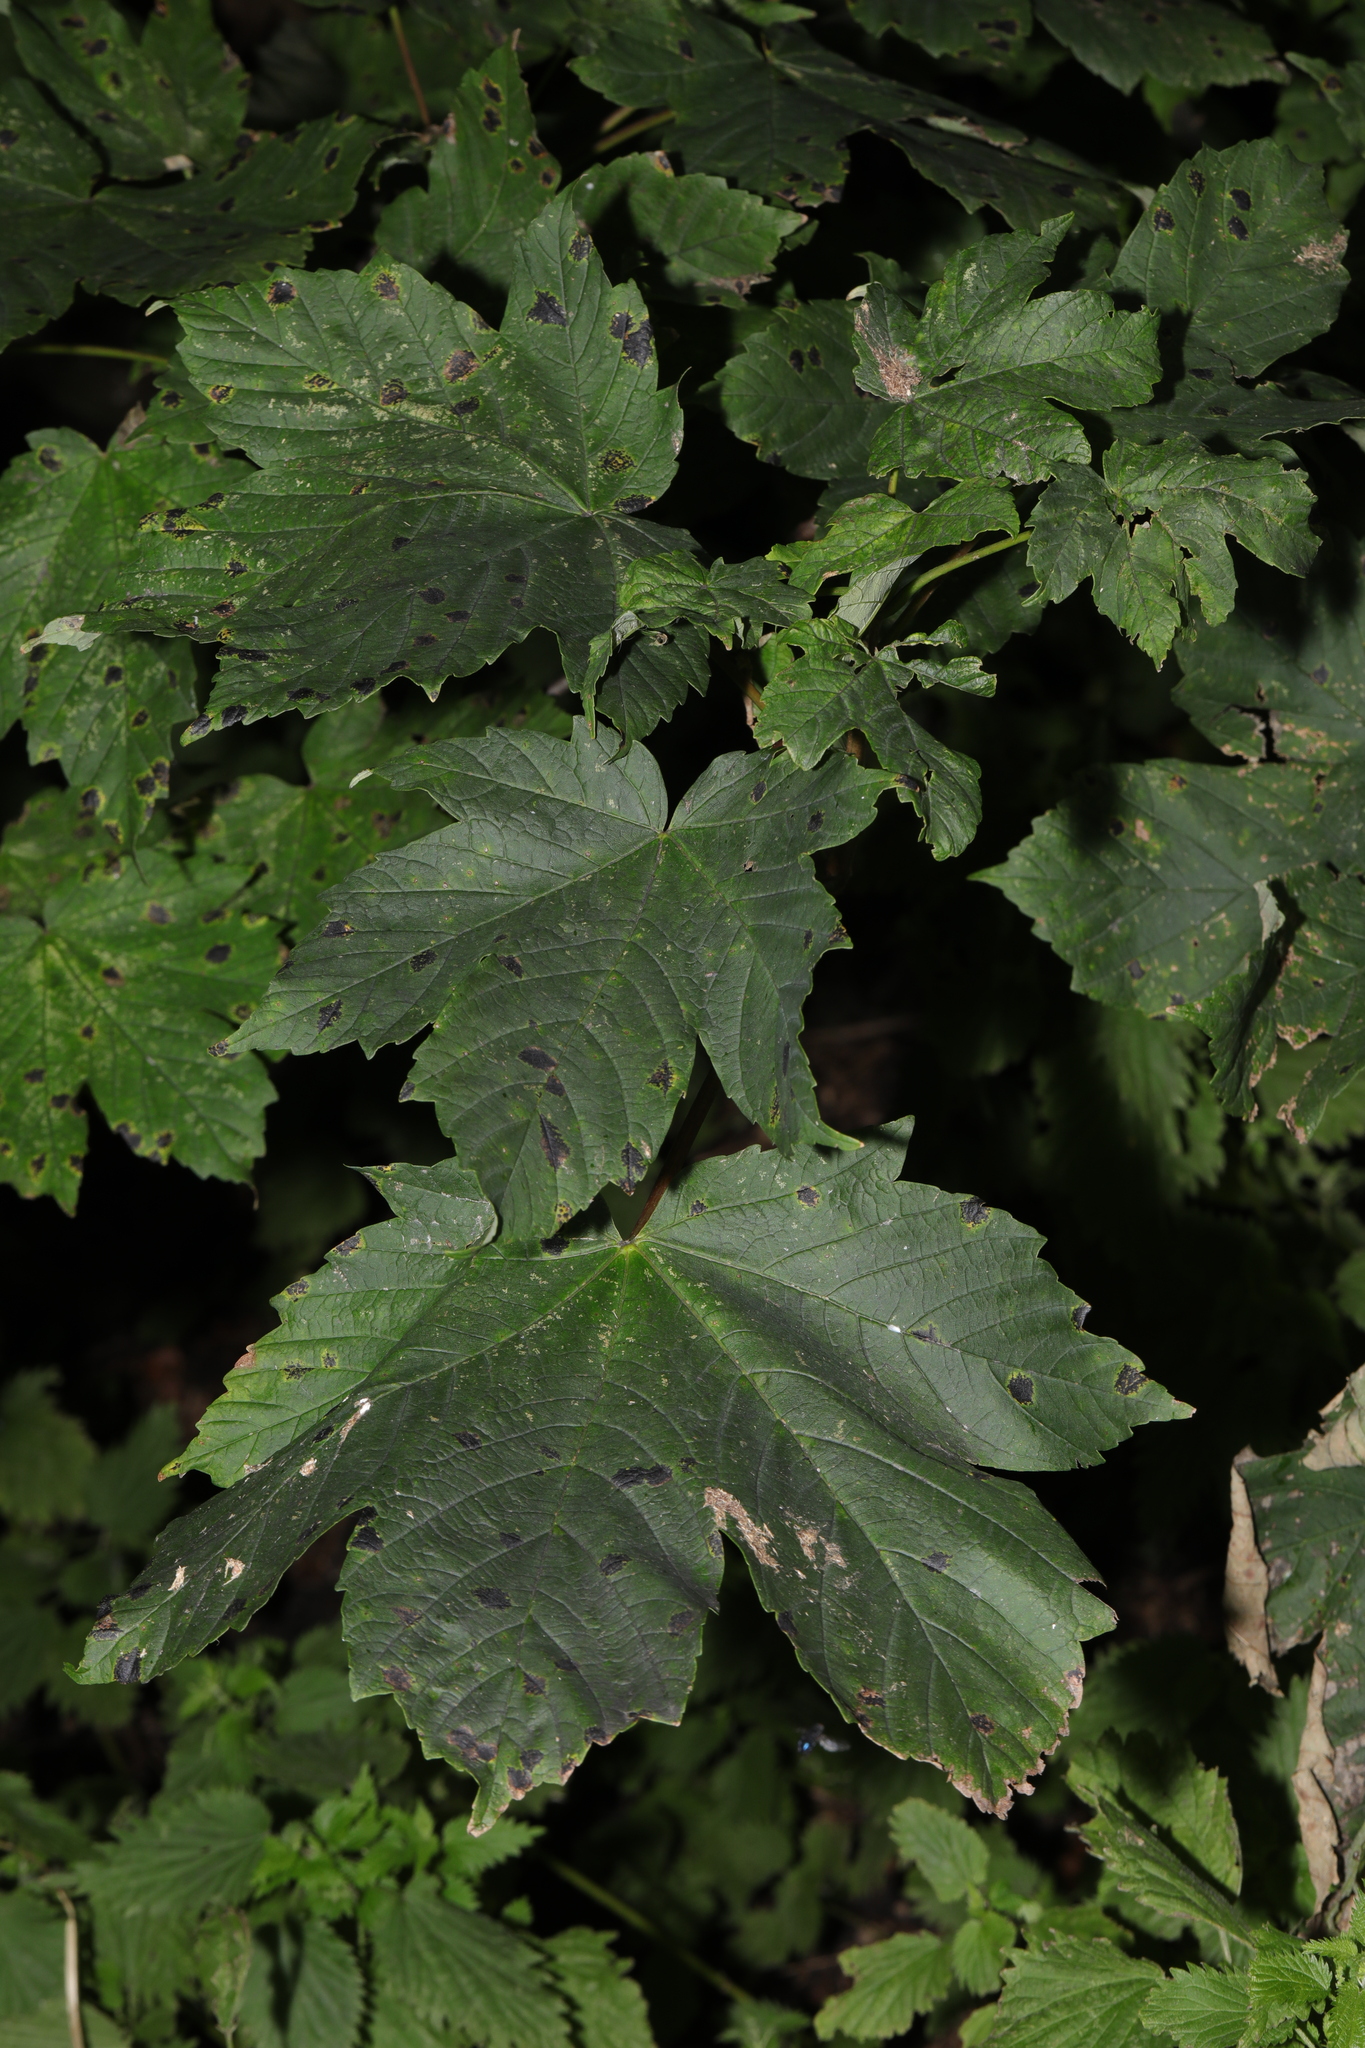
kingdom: Plantae
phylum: Tracheophyta
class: Magnoliopsida
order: Sapindales
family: Sapindaceae
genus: Acer
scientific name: Acer pseudoplatanus
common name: Sycamore
